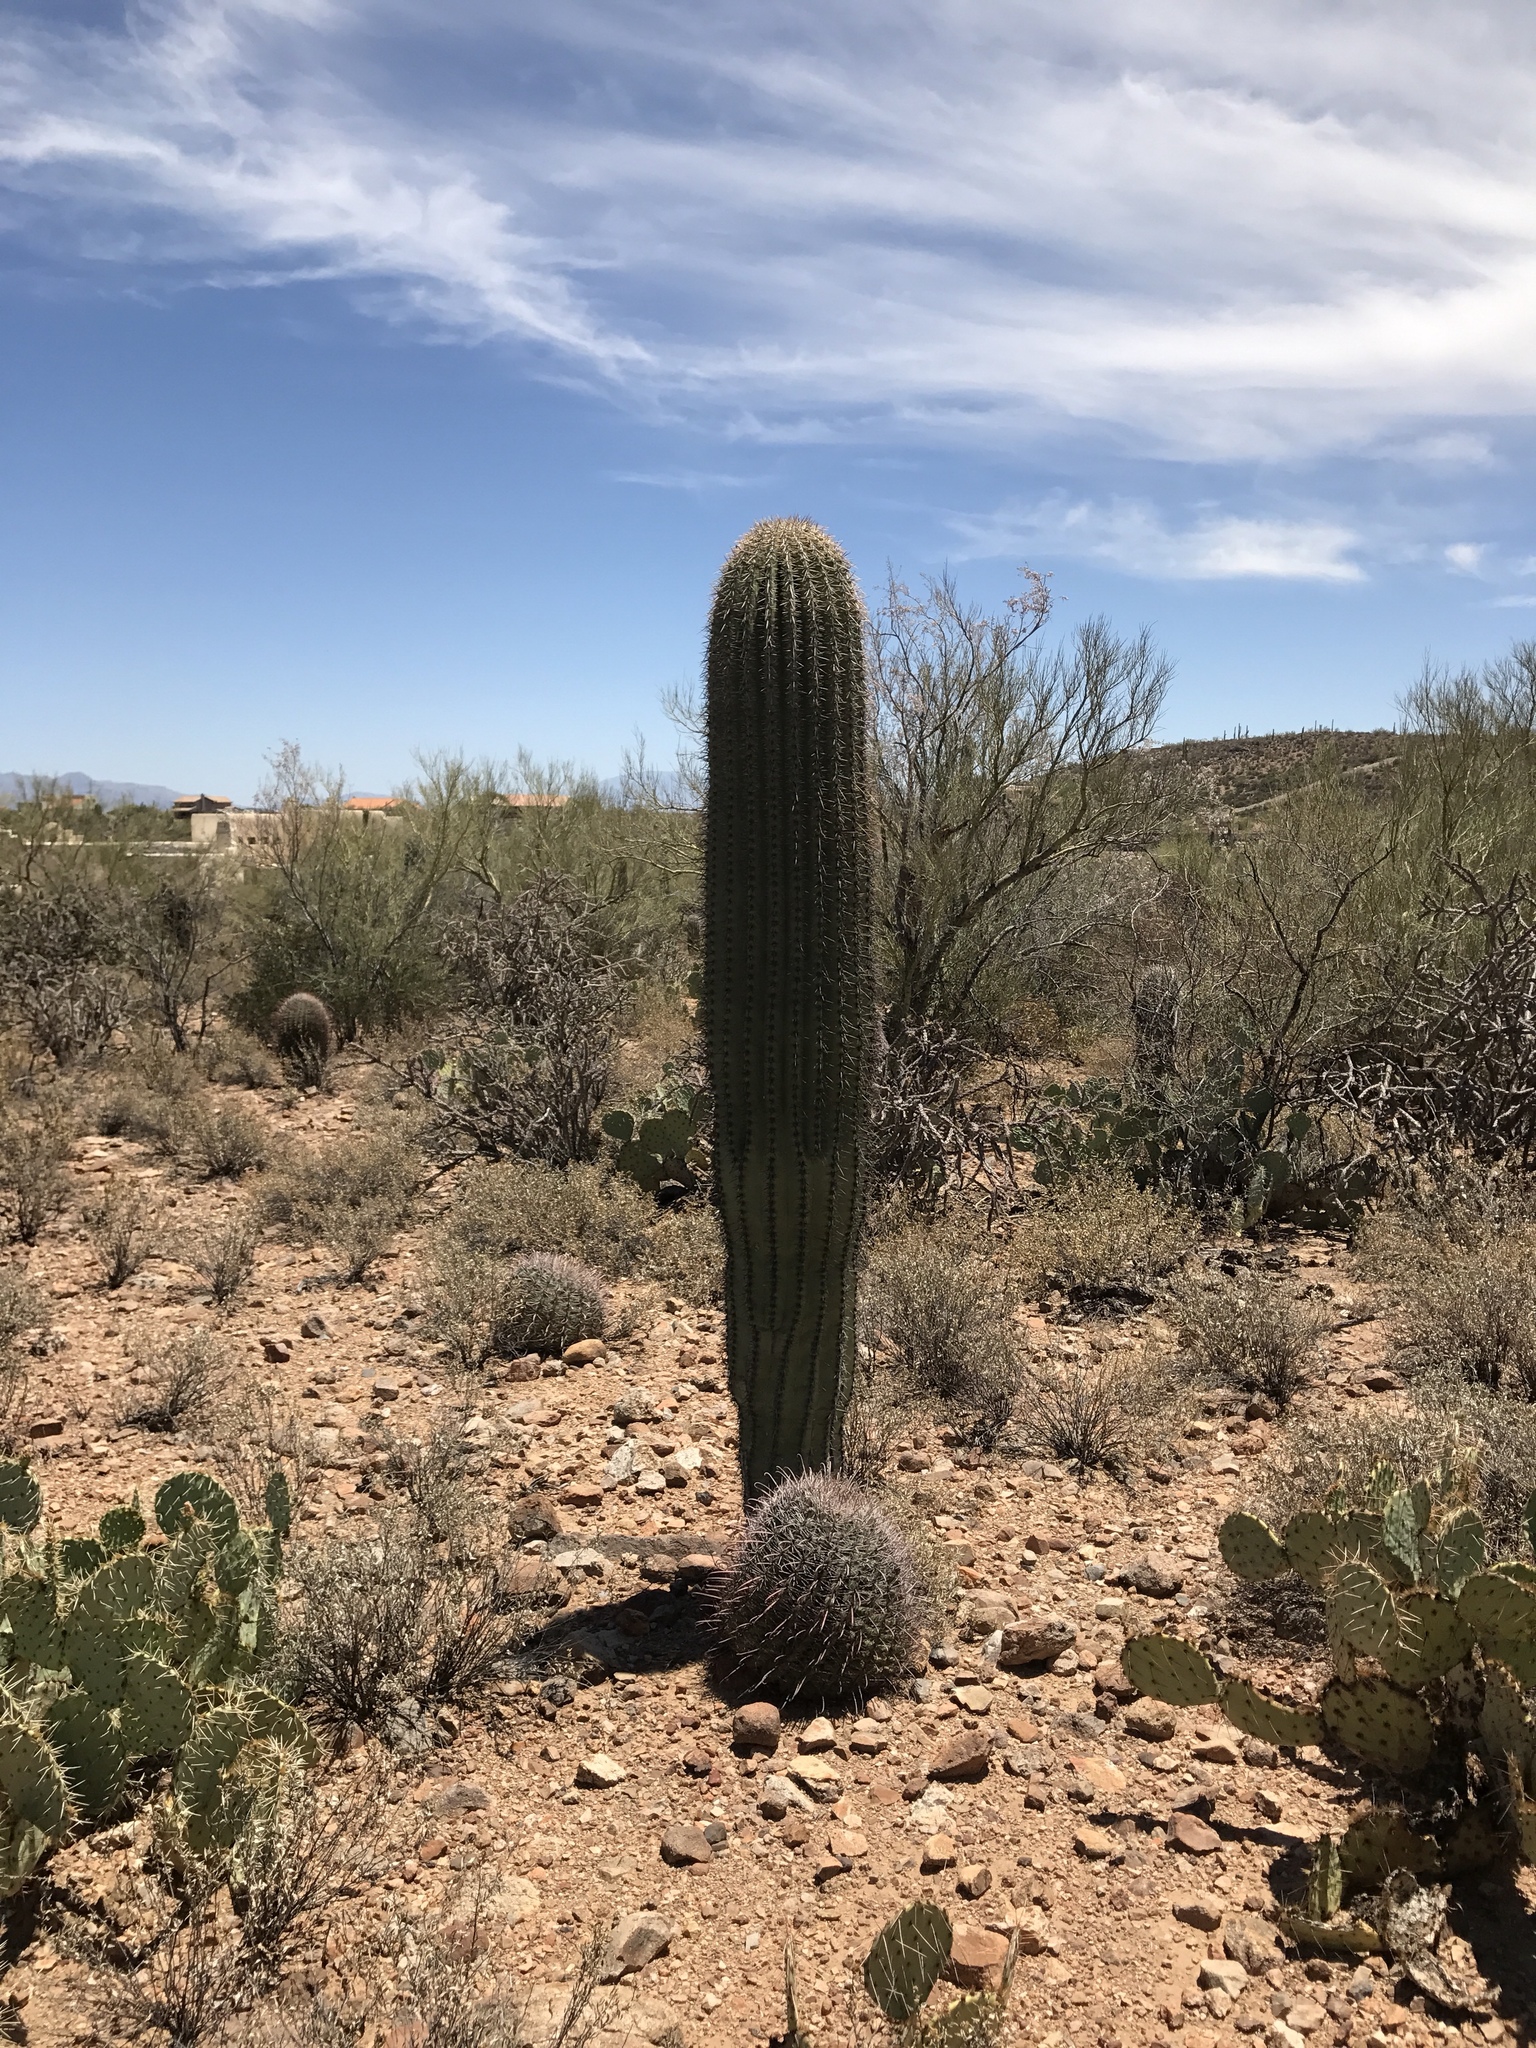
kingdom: Plantae
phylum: Tracheophyta
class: Magnoliopsida
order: Caryophyllales
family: Cactaceae
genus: Carnegiea
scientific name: Carnegiea gigantea
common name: Saguaro
